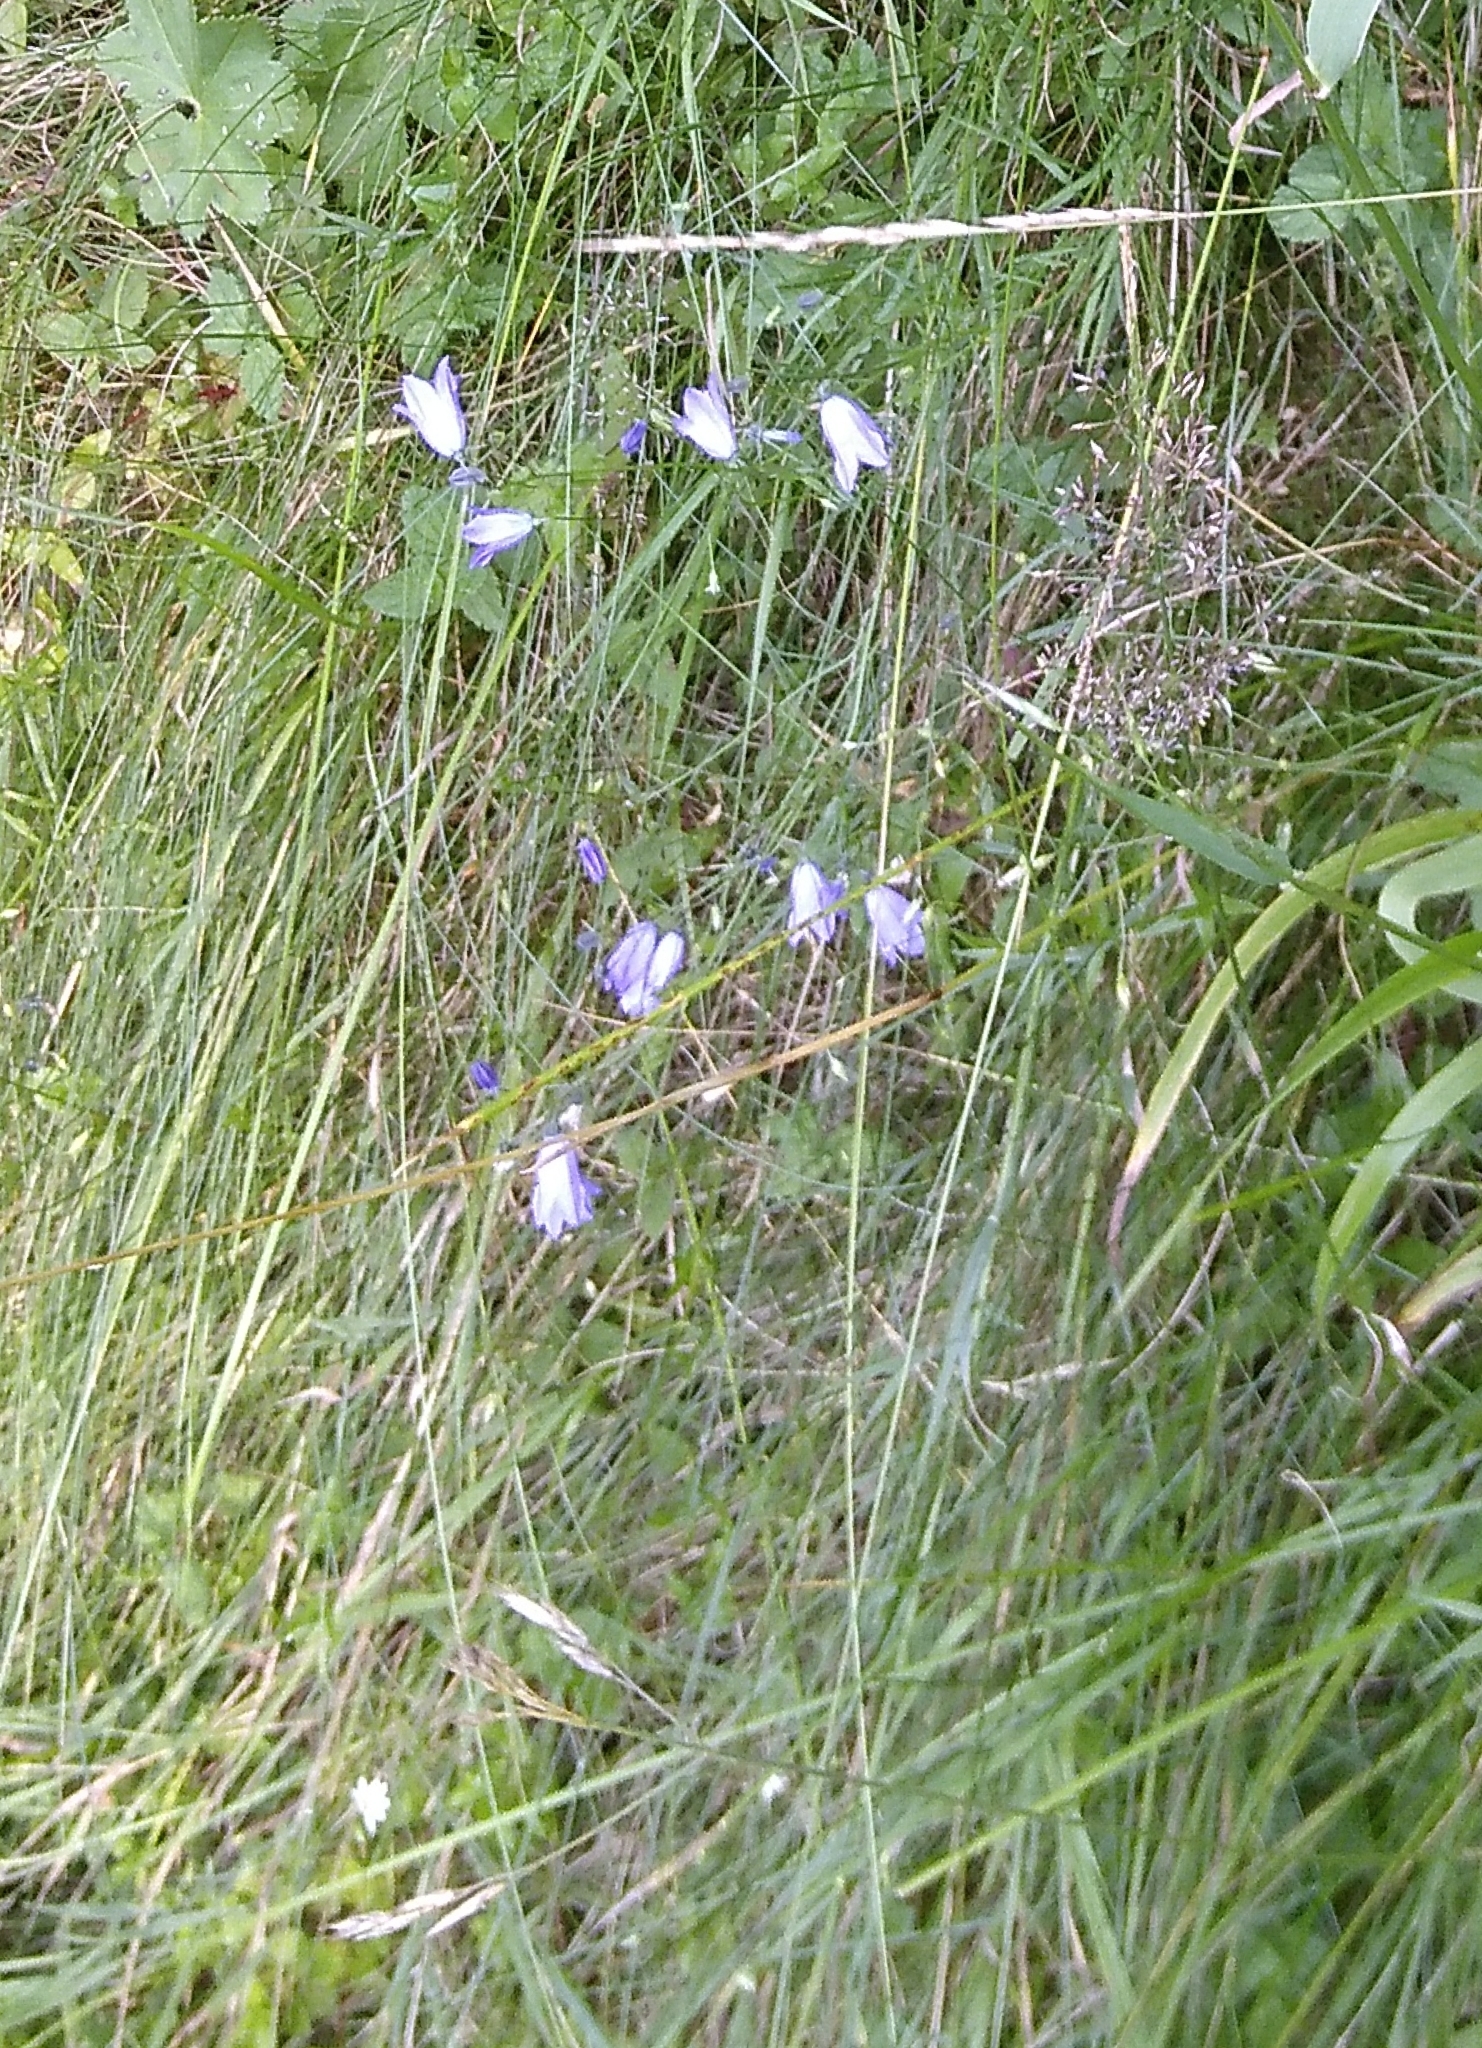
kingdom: Plantae
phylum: Tracheophyta
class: Magnoliopsida
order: Asterales
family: Campanulaceae
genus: Campanula
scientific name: Campanula rotundifolia
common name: Harebell
